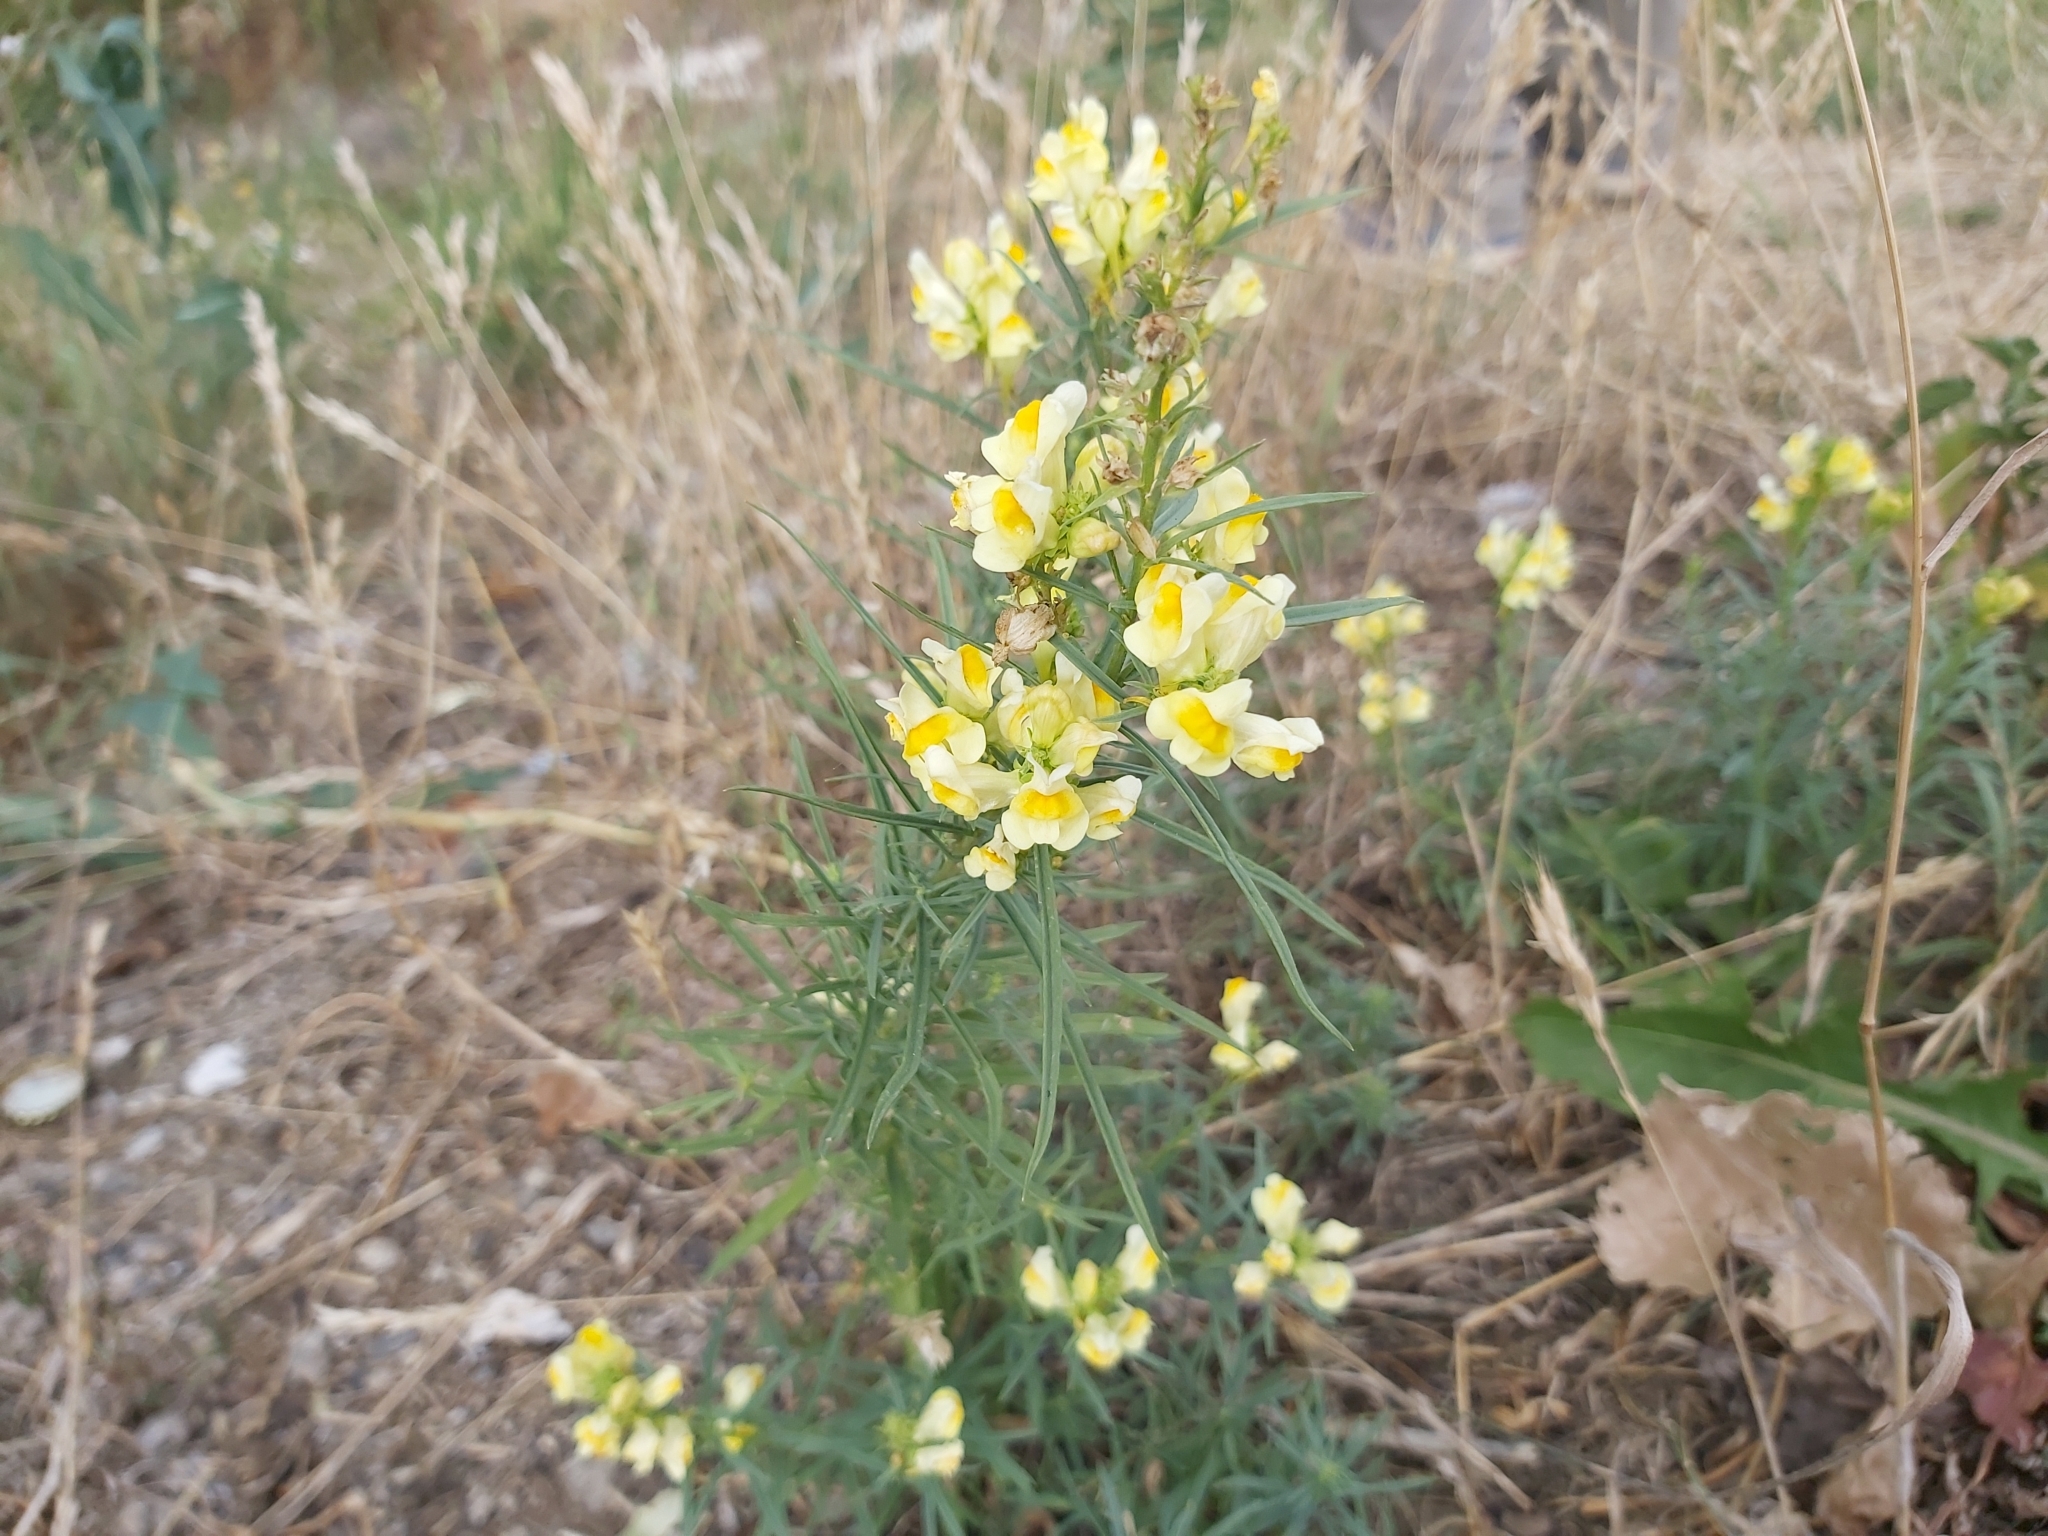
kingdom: Plantae
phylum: Tracheophyta
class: Magnoliopsida
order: Lamiales
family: Plantaginaceae
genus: Linaria
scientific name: Linaria vulgaris
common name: Butter and eggs
